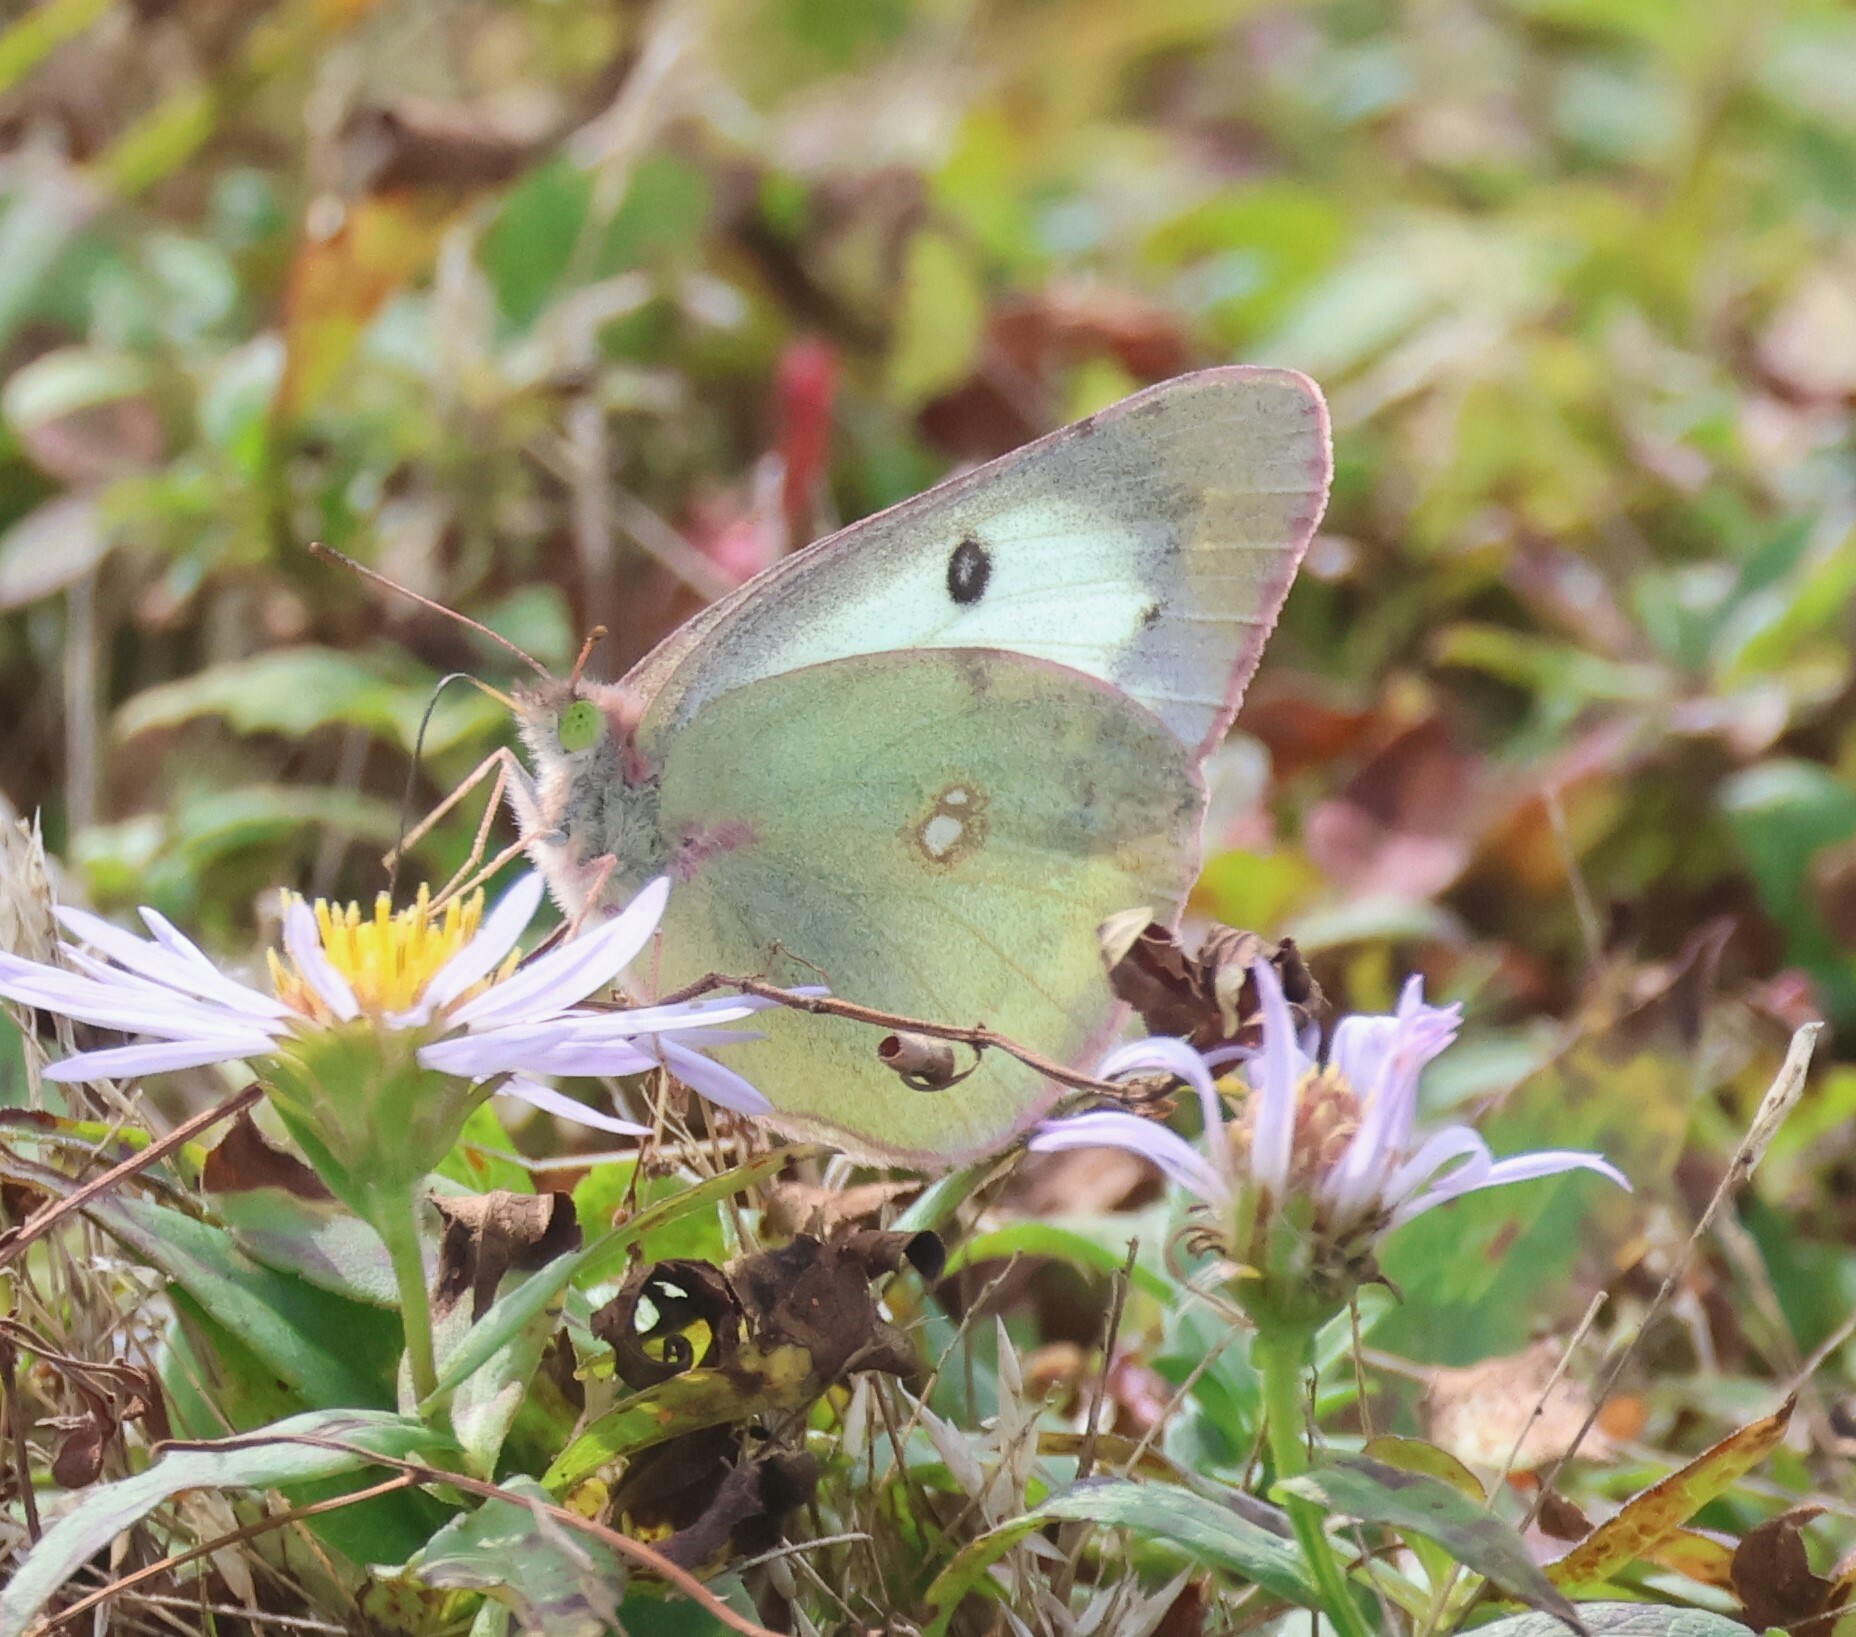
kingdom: Animalia
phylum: Arthropoda
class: Insecta
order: Lepidoptera
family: Pieridae
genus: Colias
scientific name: Colias philodice
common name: Clouded sulphur
